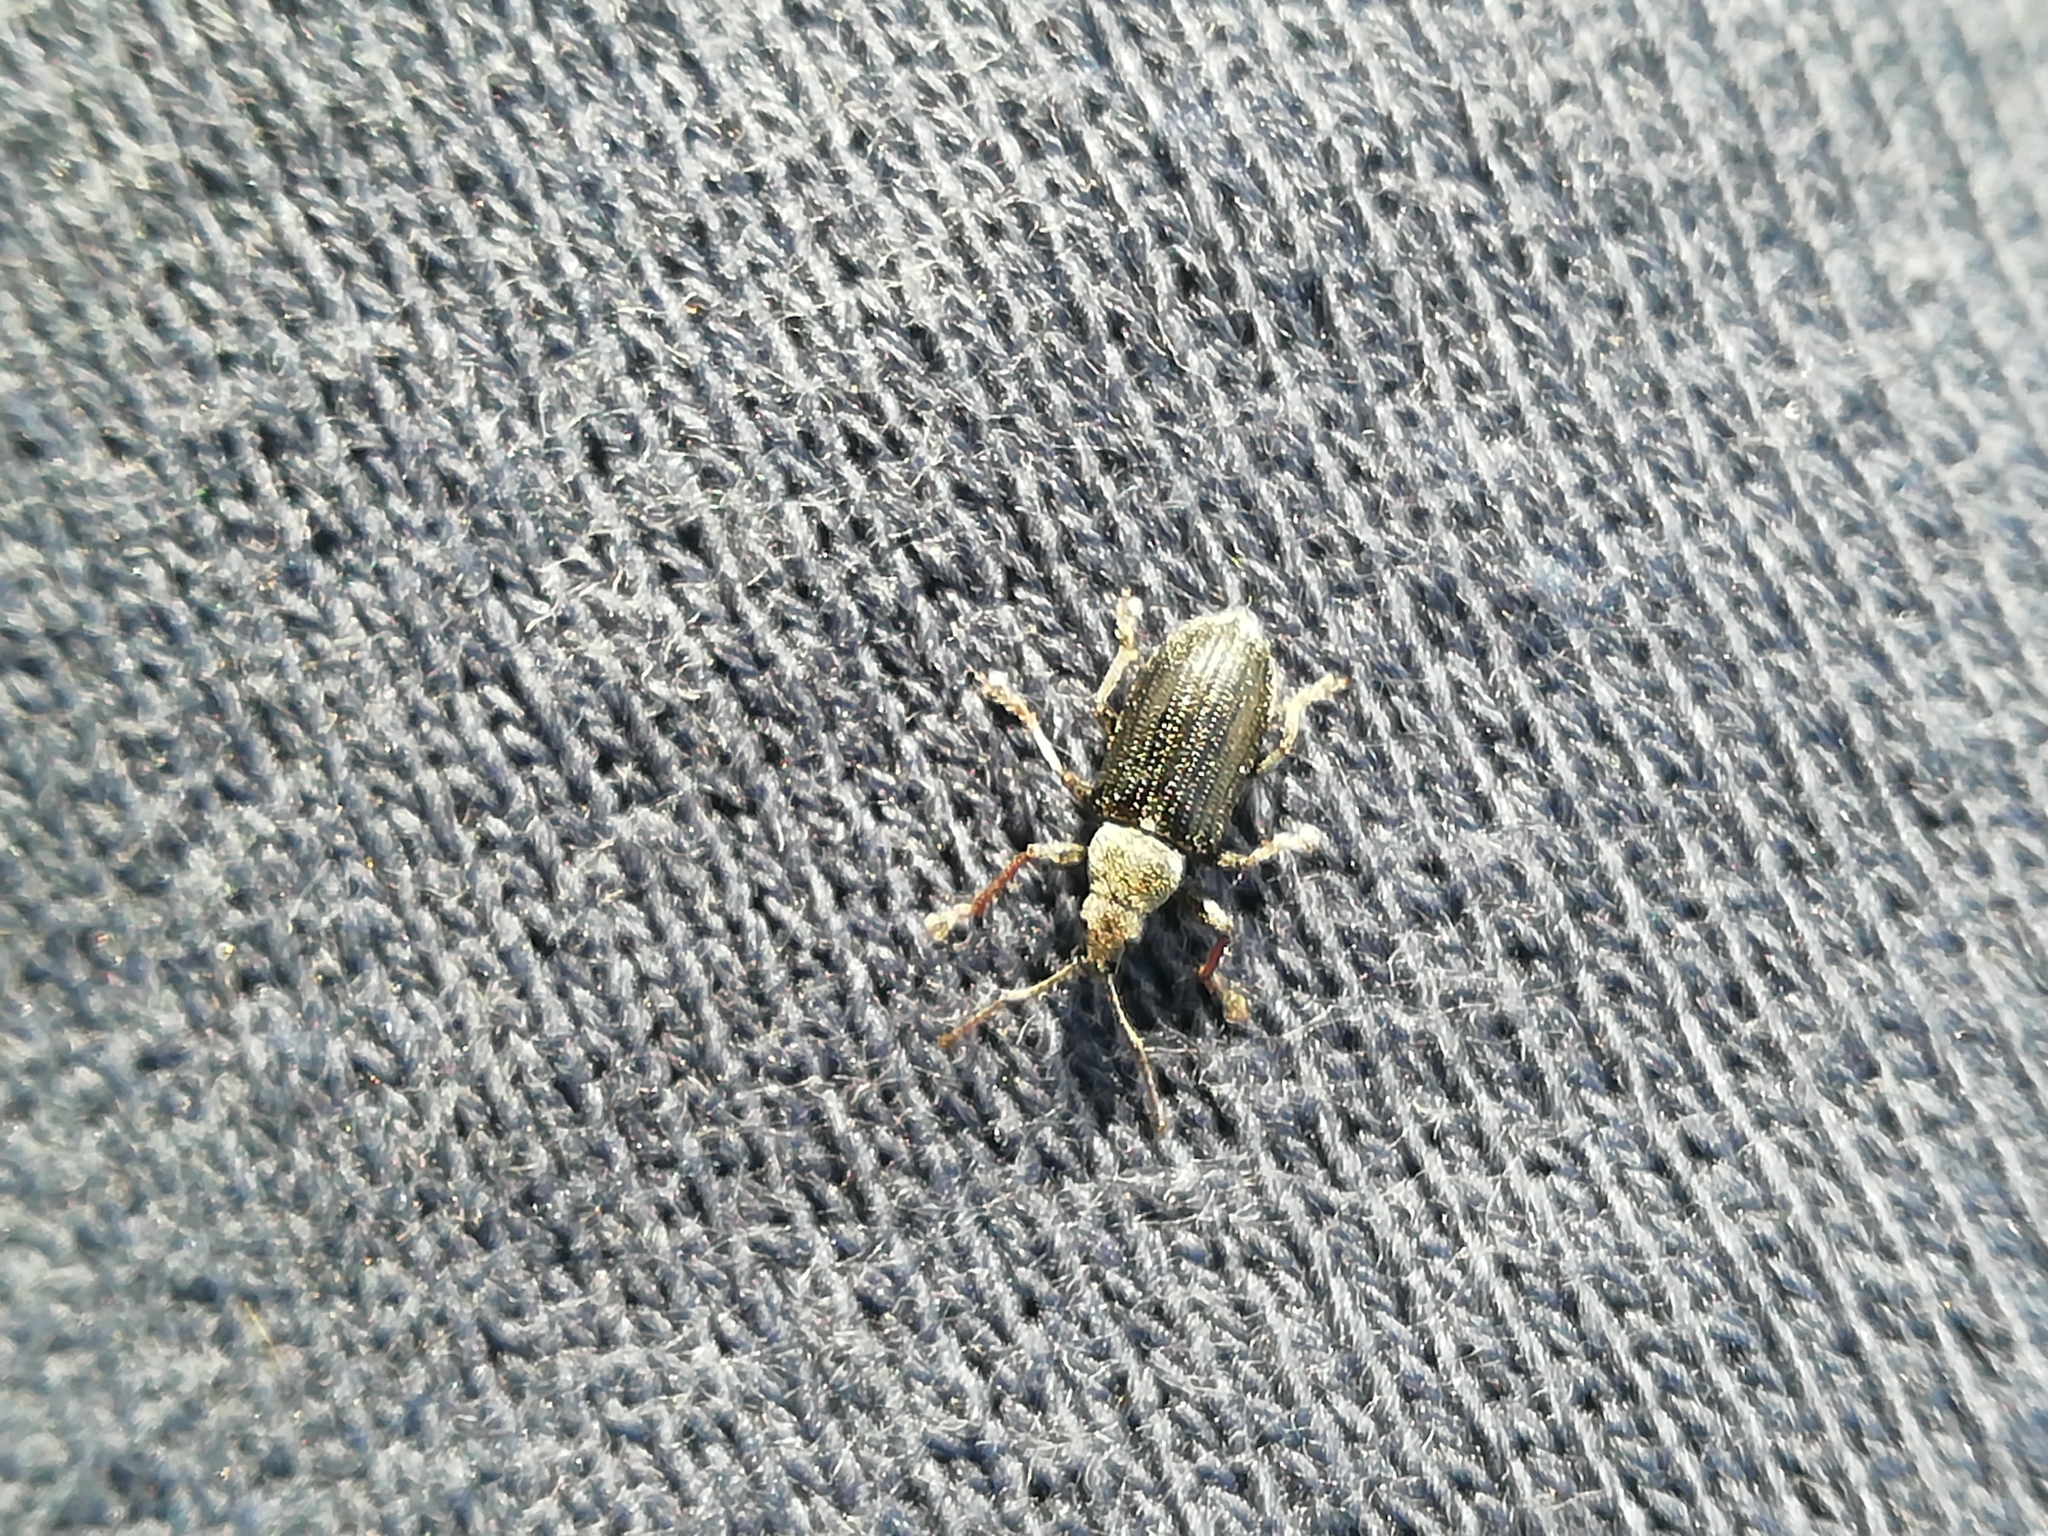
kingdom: Animalia
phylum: Arthropoda
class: Insecta
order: Coleoptera
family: Curculionidae
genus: Phyllobius
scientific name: Phyllobius pyri
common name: Common leaf weevil
